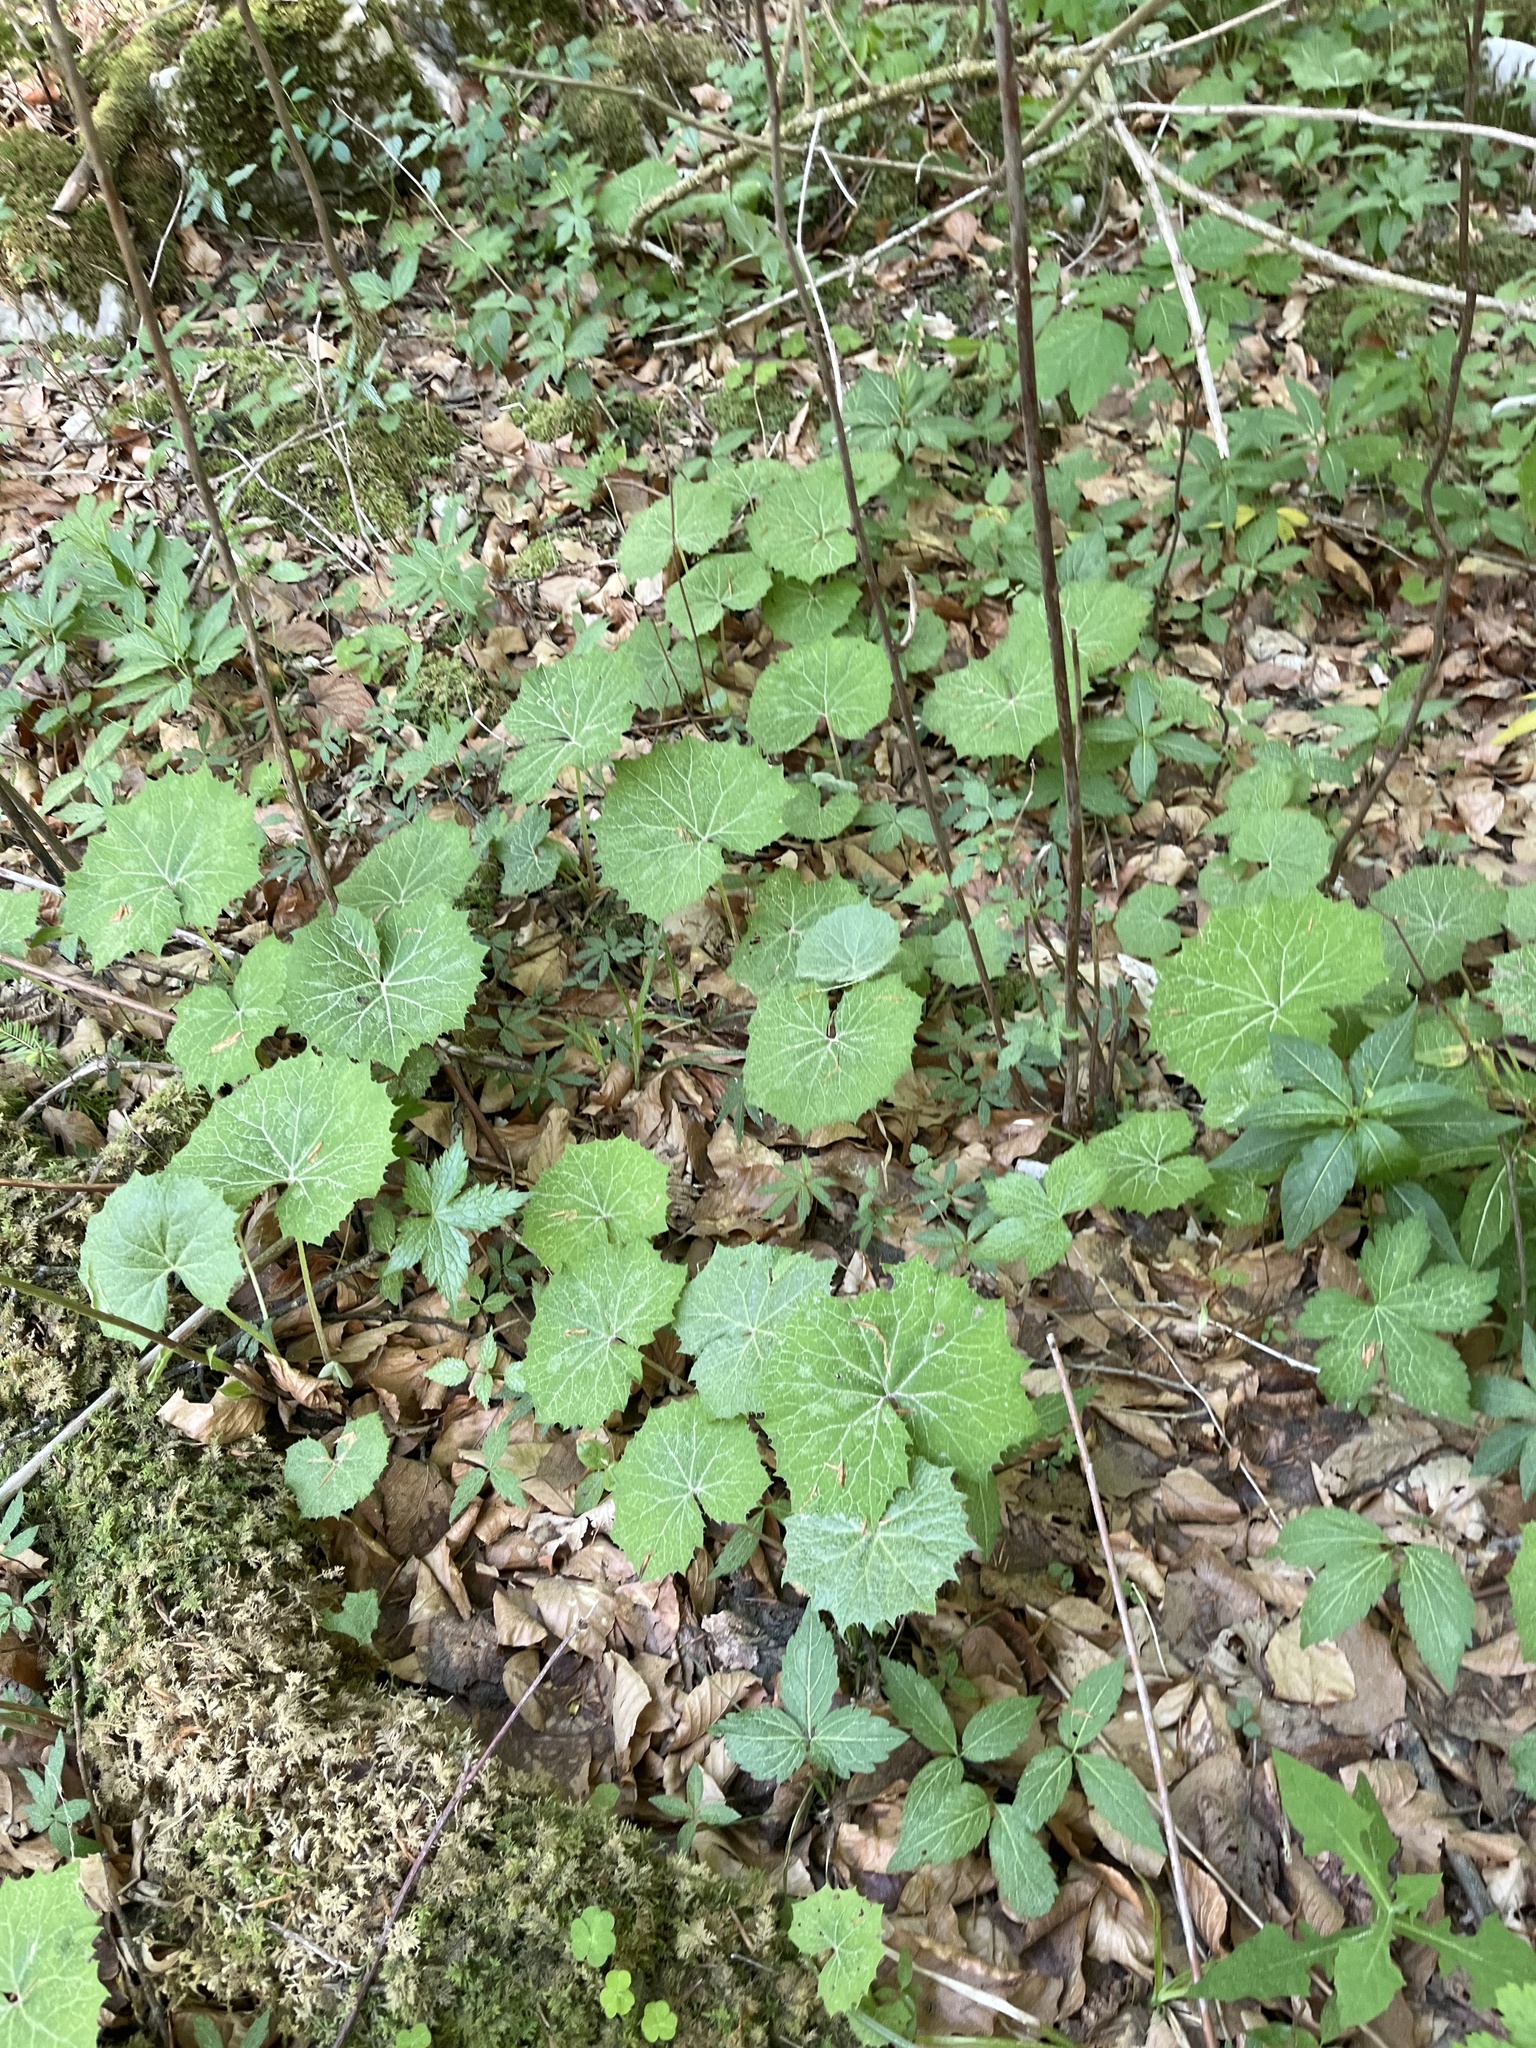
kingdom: Plantae
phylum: Tracheophyta
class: Magnoliopsida
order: Asterales
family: Asteraceae
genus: Petasites
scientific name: Petasites albus
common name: White butterbur
